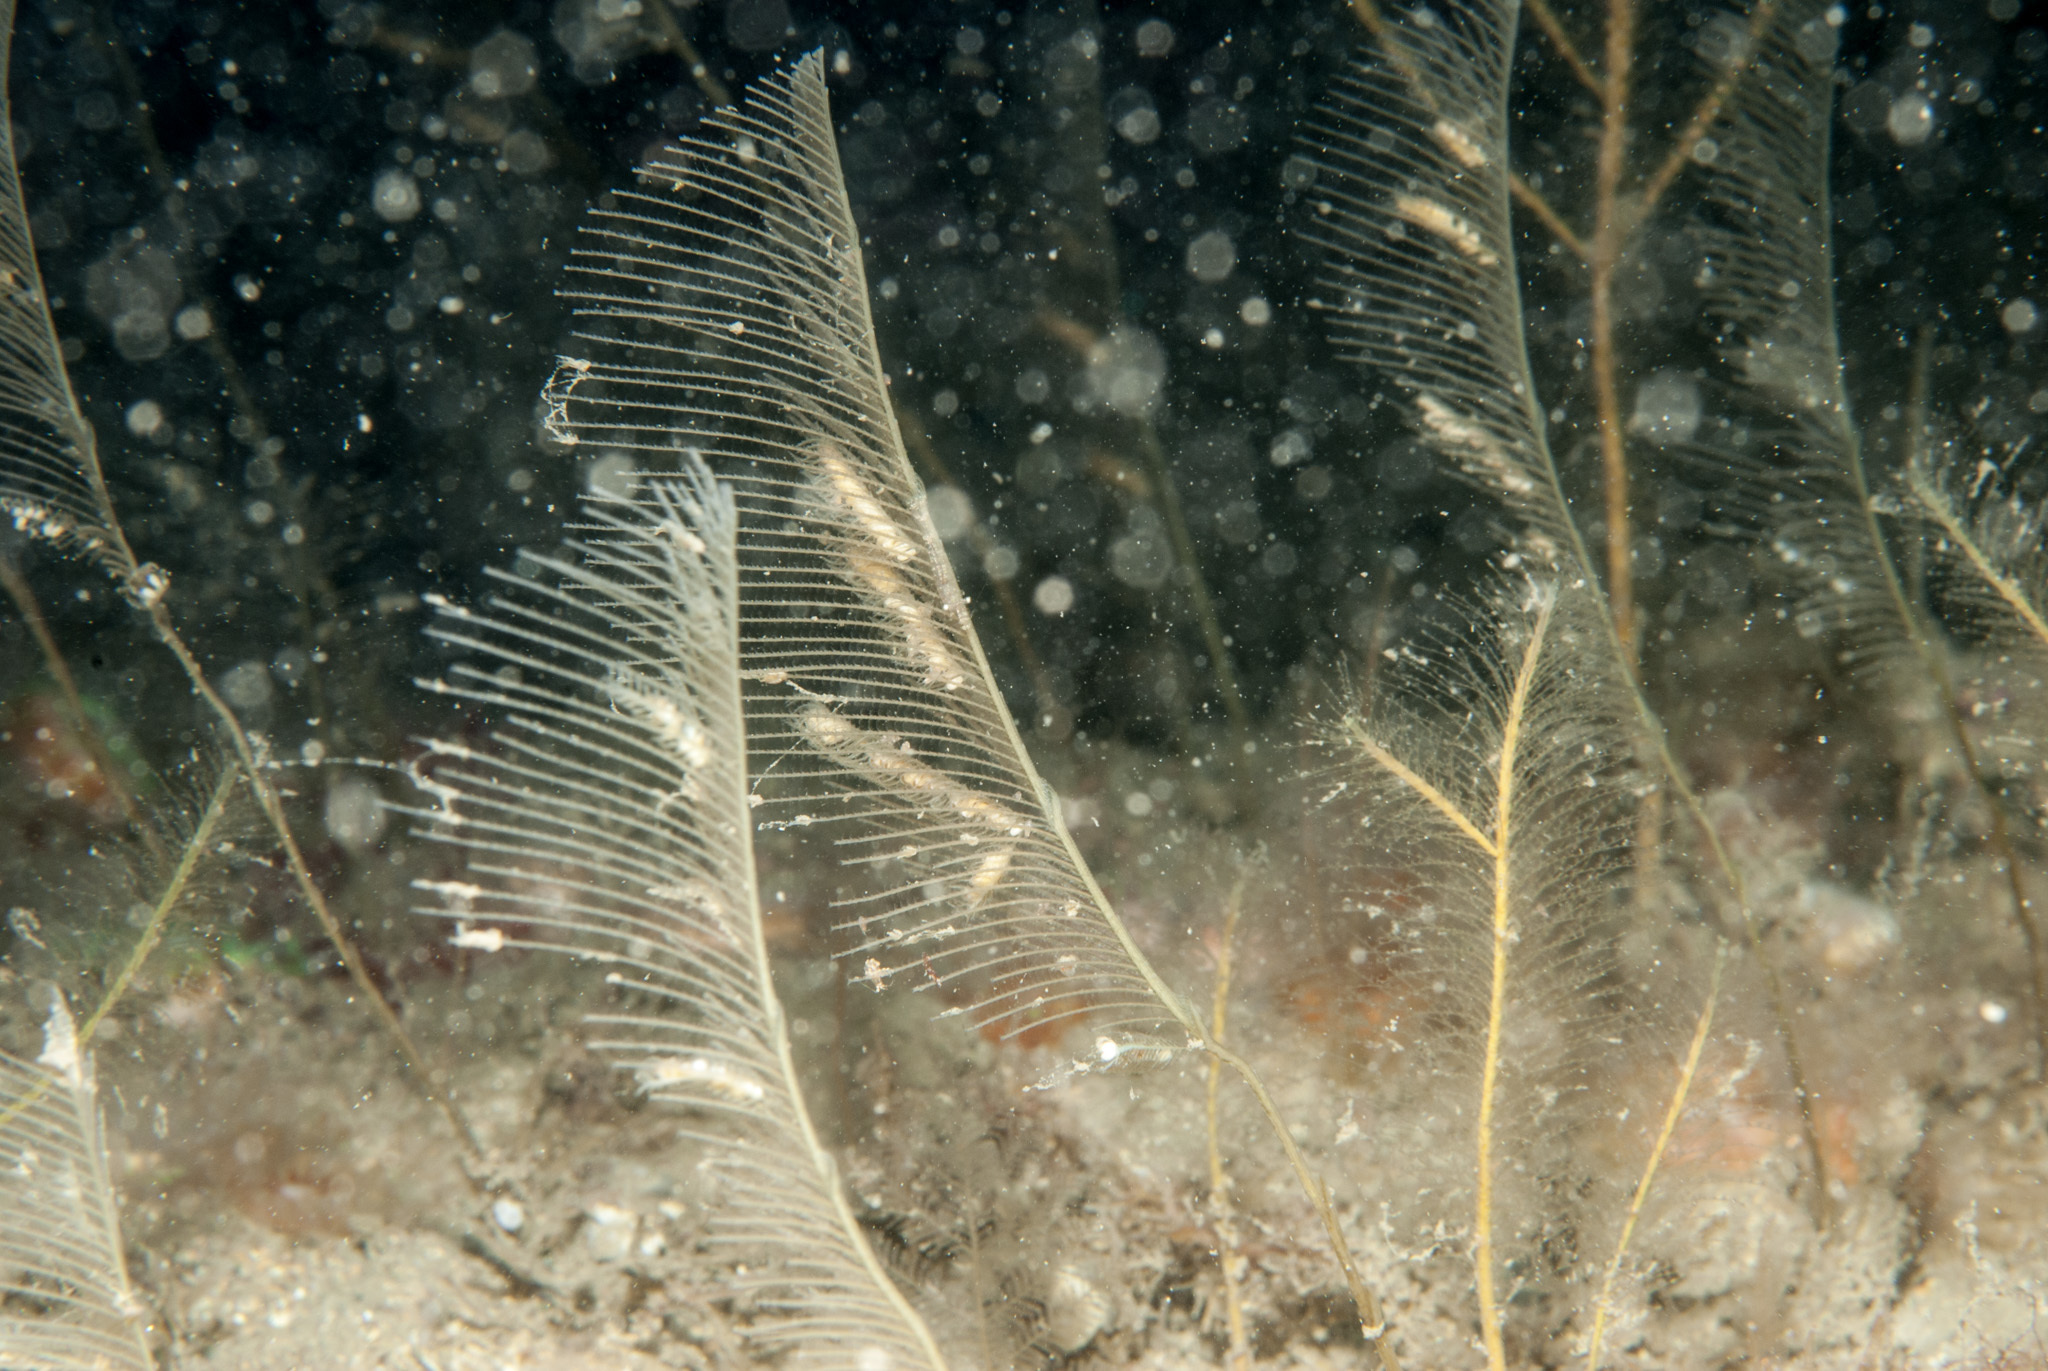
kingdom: Animalia
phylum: Cnidaria
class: Hydrozoa
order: Leptothecata
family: Aglaopheniidae
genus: Lytocarpia
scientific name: Lytocarpia myriophyllum
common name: Pheasant-tail hydroid
